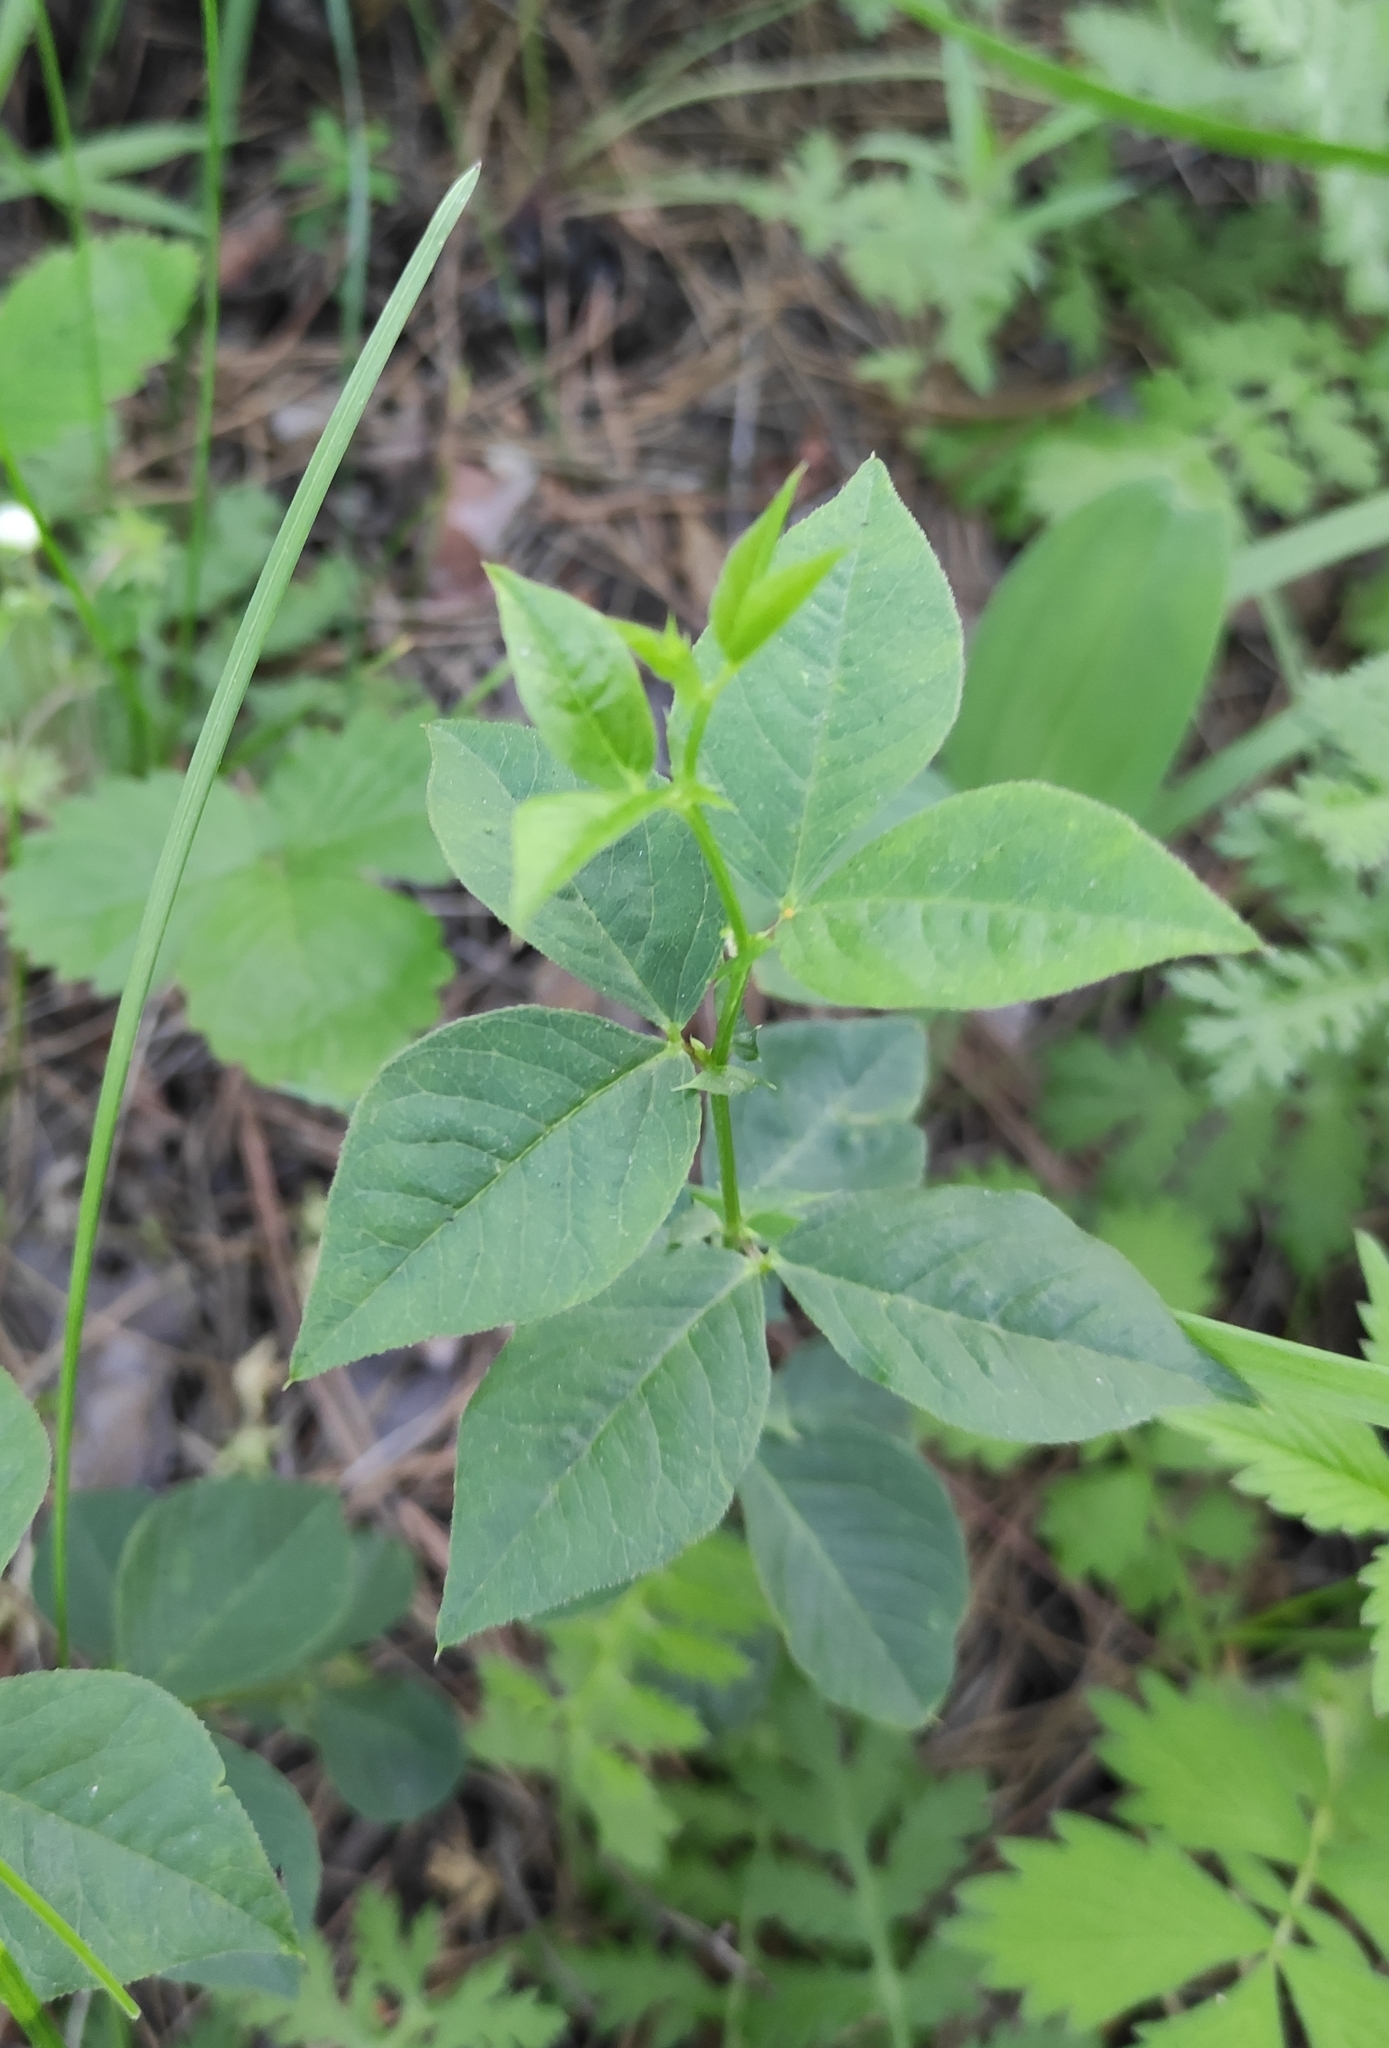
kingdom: Plantae
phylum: Tracheophyta
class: Magnoliopsida
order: Fabales
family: Fabaceae
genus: Vicia
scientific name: Vicia unijuga
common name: Two-leaf vetch
